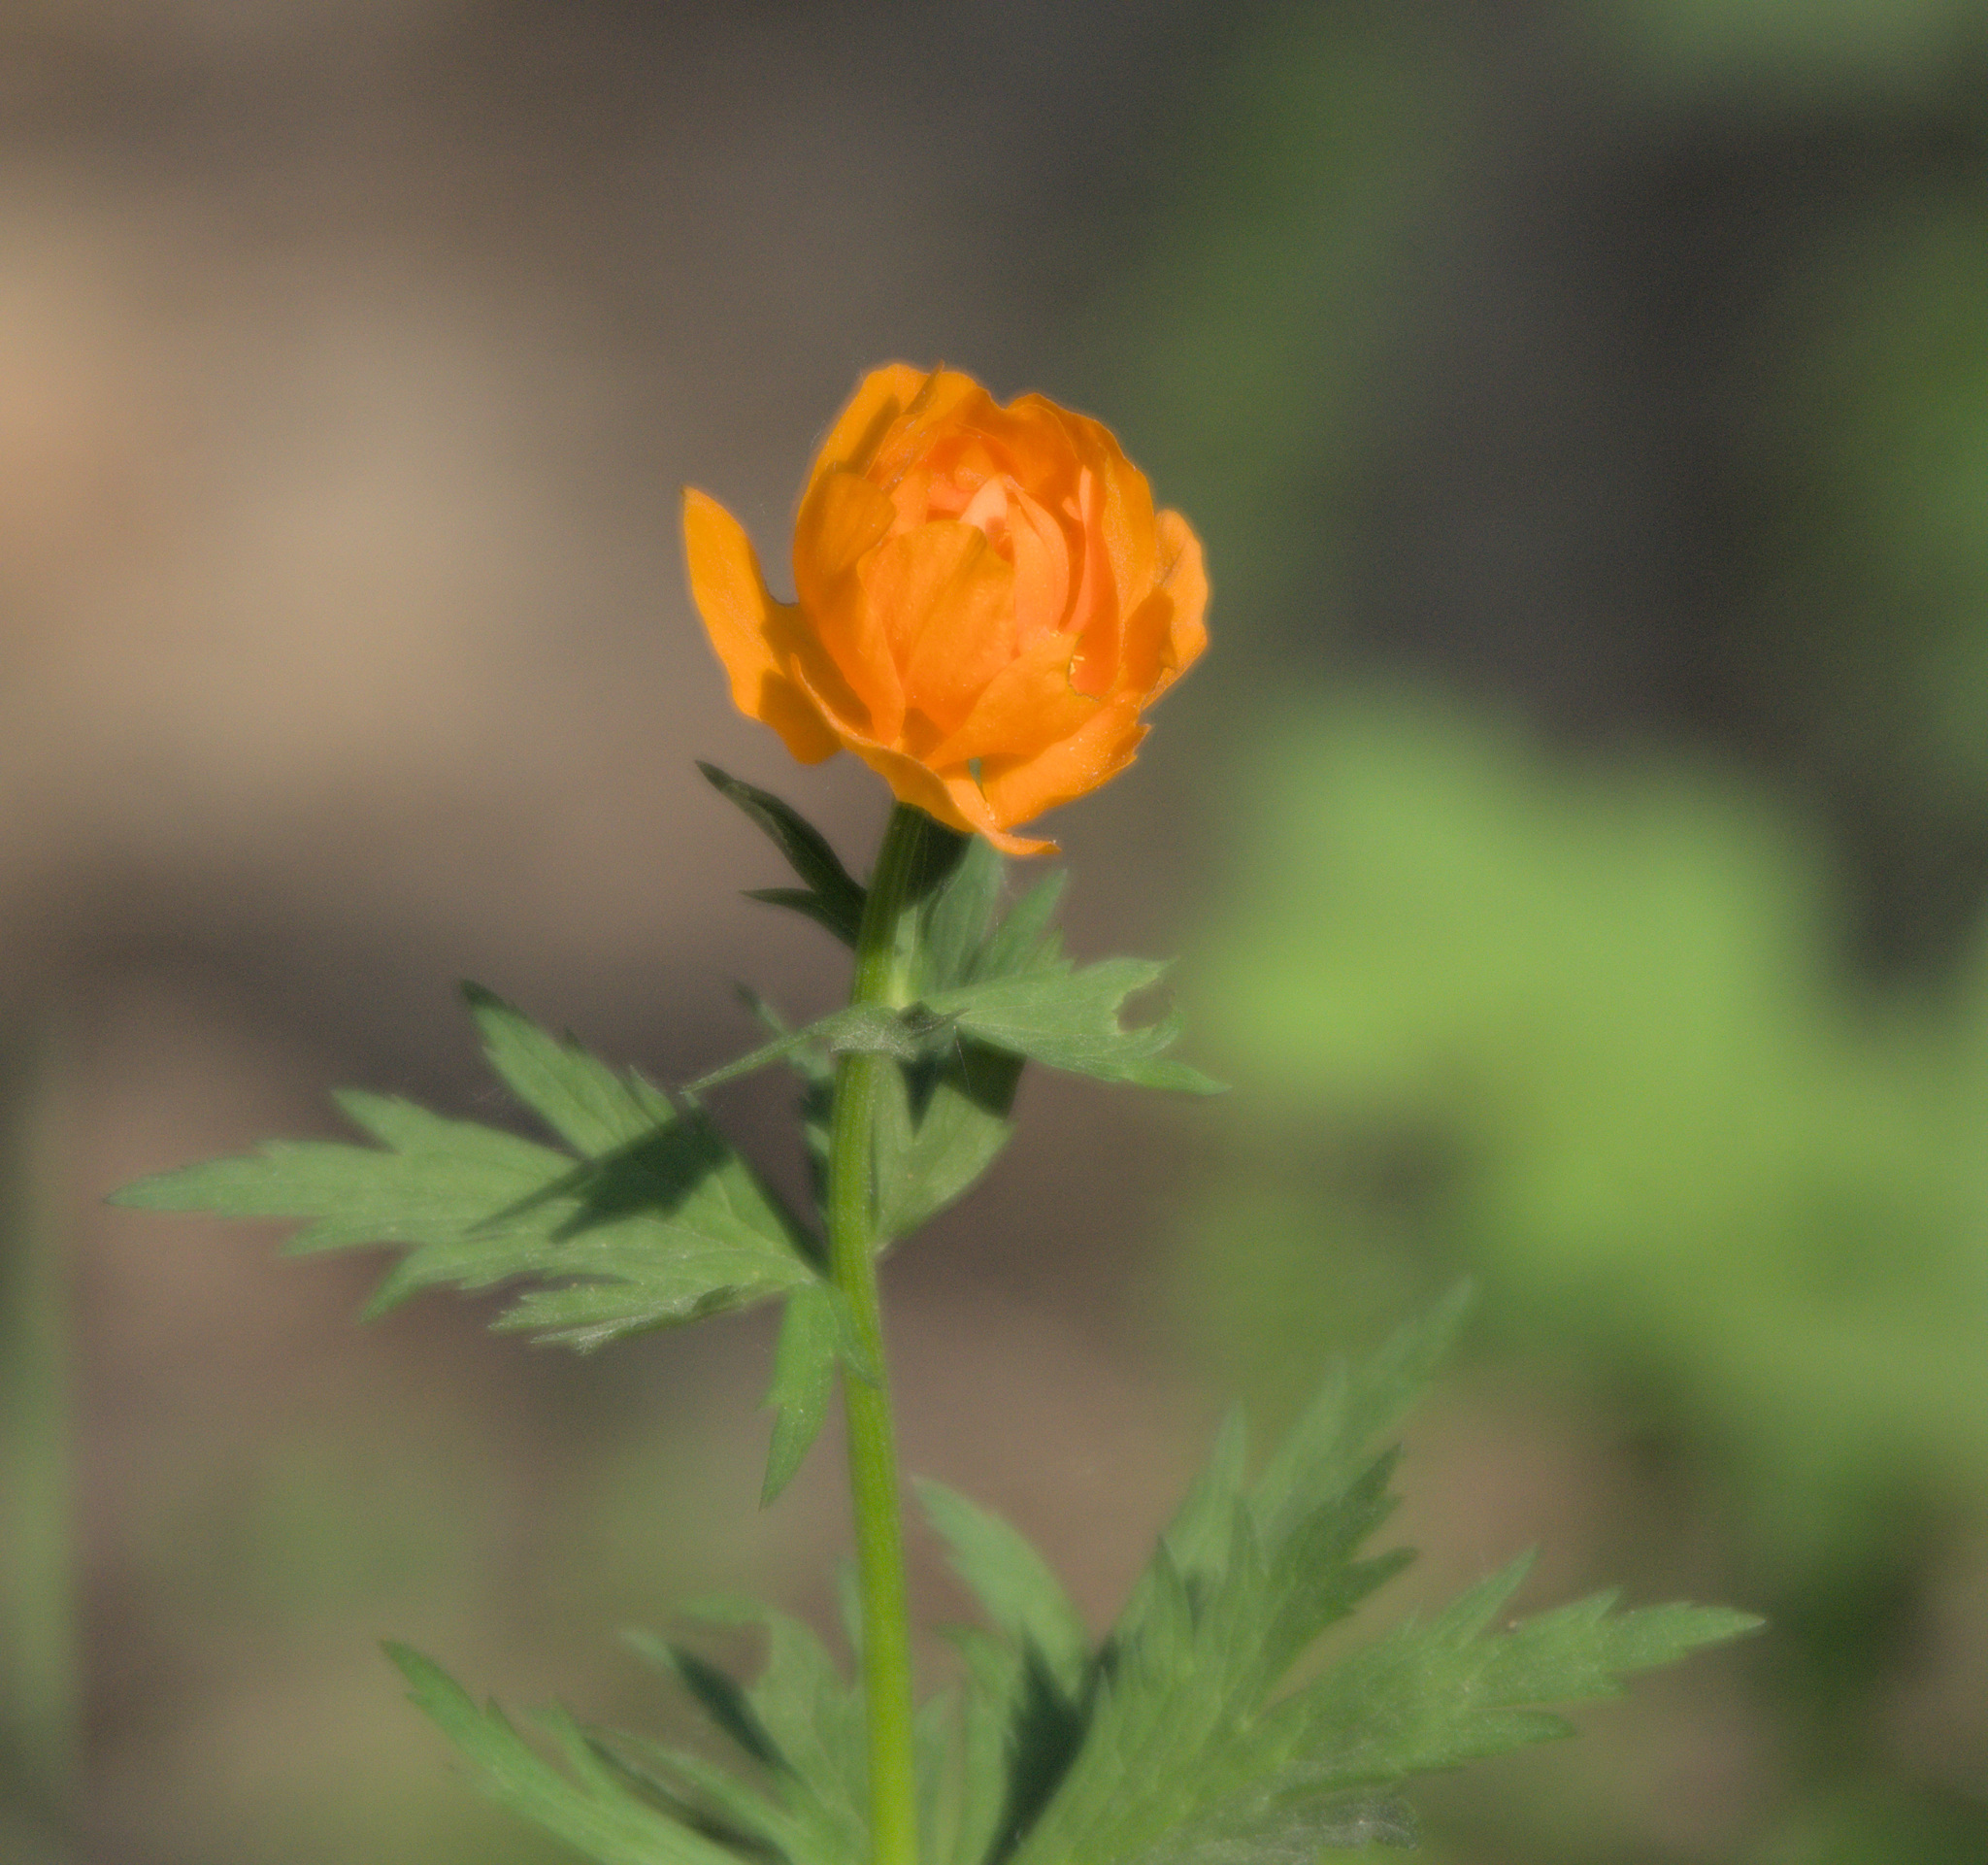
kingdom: Plantae
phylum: Tracheophyta
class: Magnoliopsida
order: Ranunculales
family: Ranunculaceae
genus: Trollius
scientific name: Trollius asiaticus
